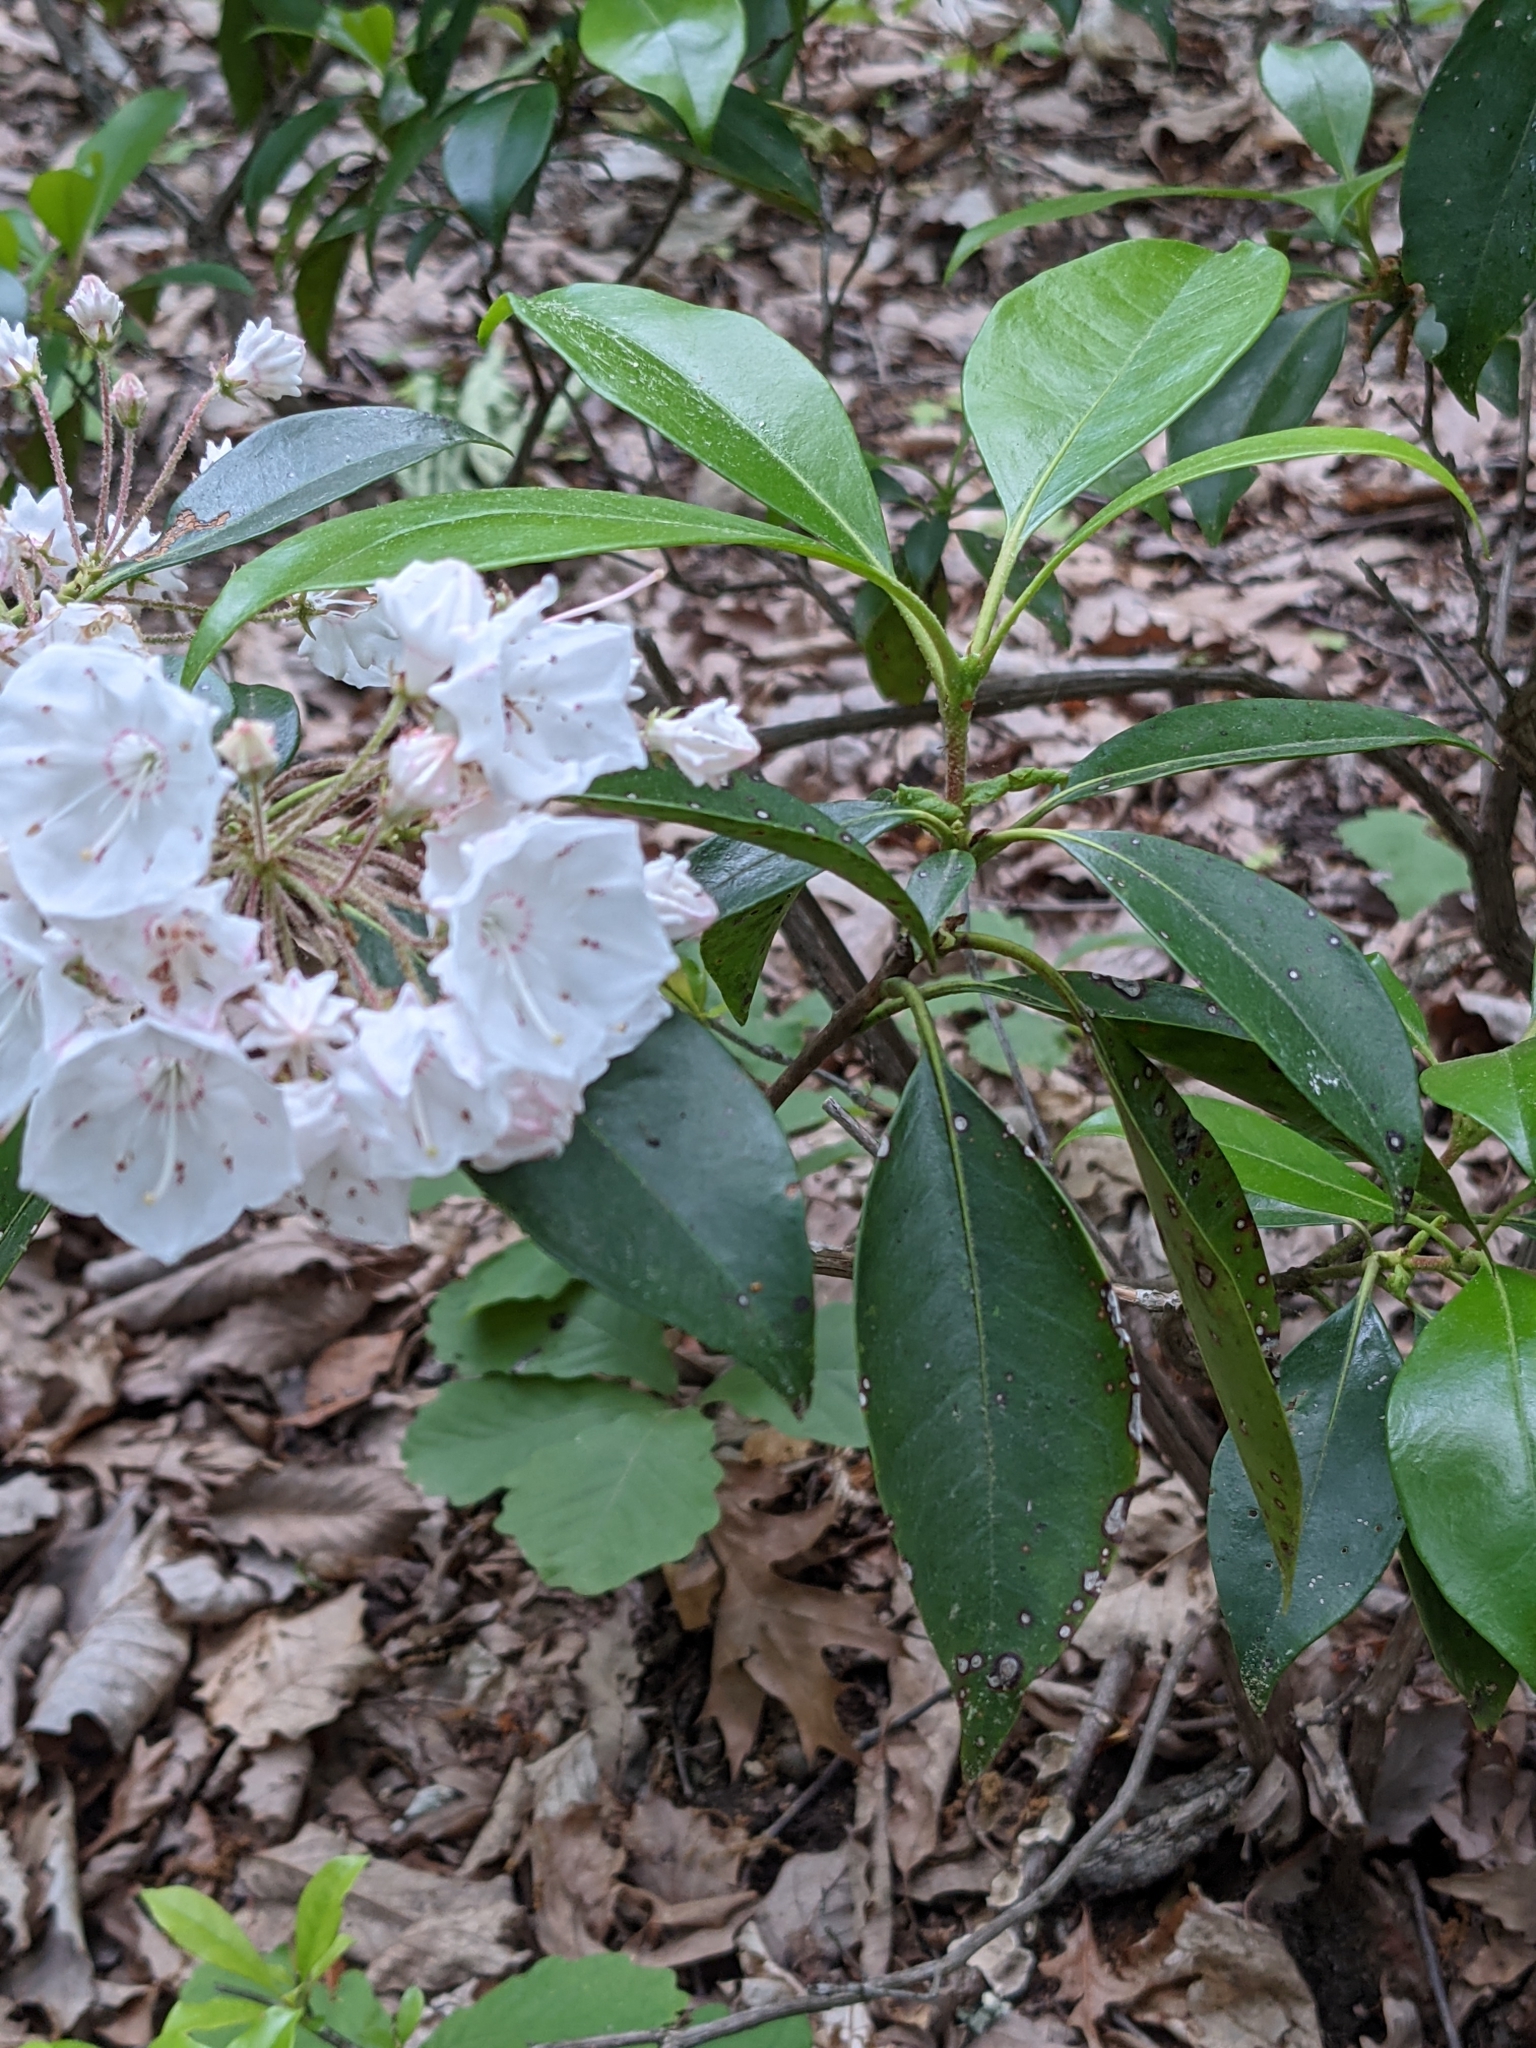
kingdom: Plantae
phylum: Tracheophyta
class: Magnoliopsida
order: Ericales
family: Ericaceae
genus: Kalmia
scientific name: Kalmia latifolia
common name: Mountain-laurel
